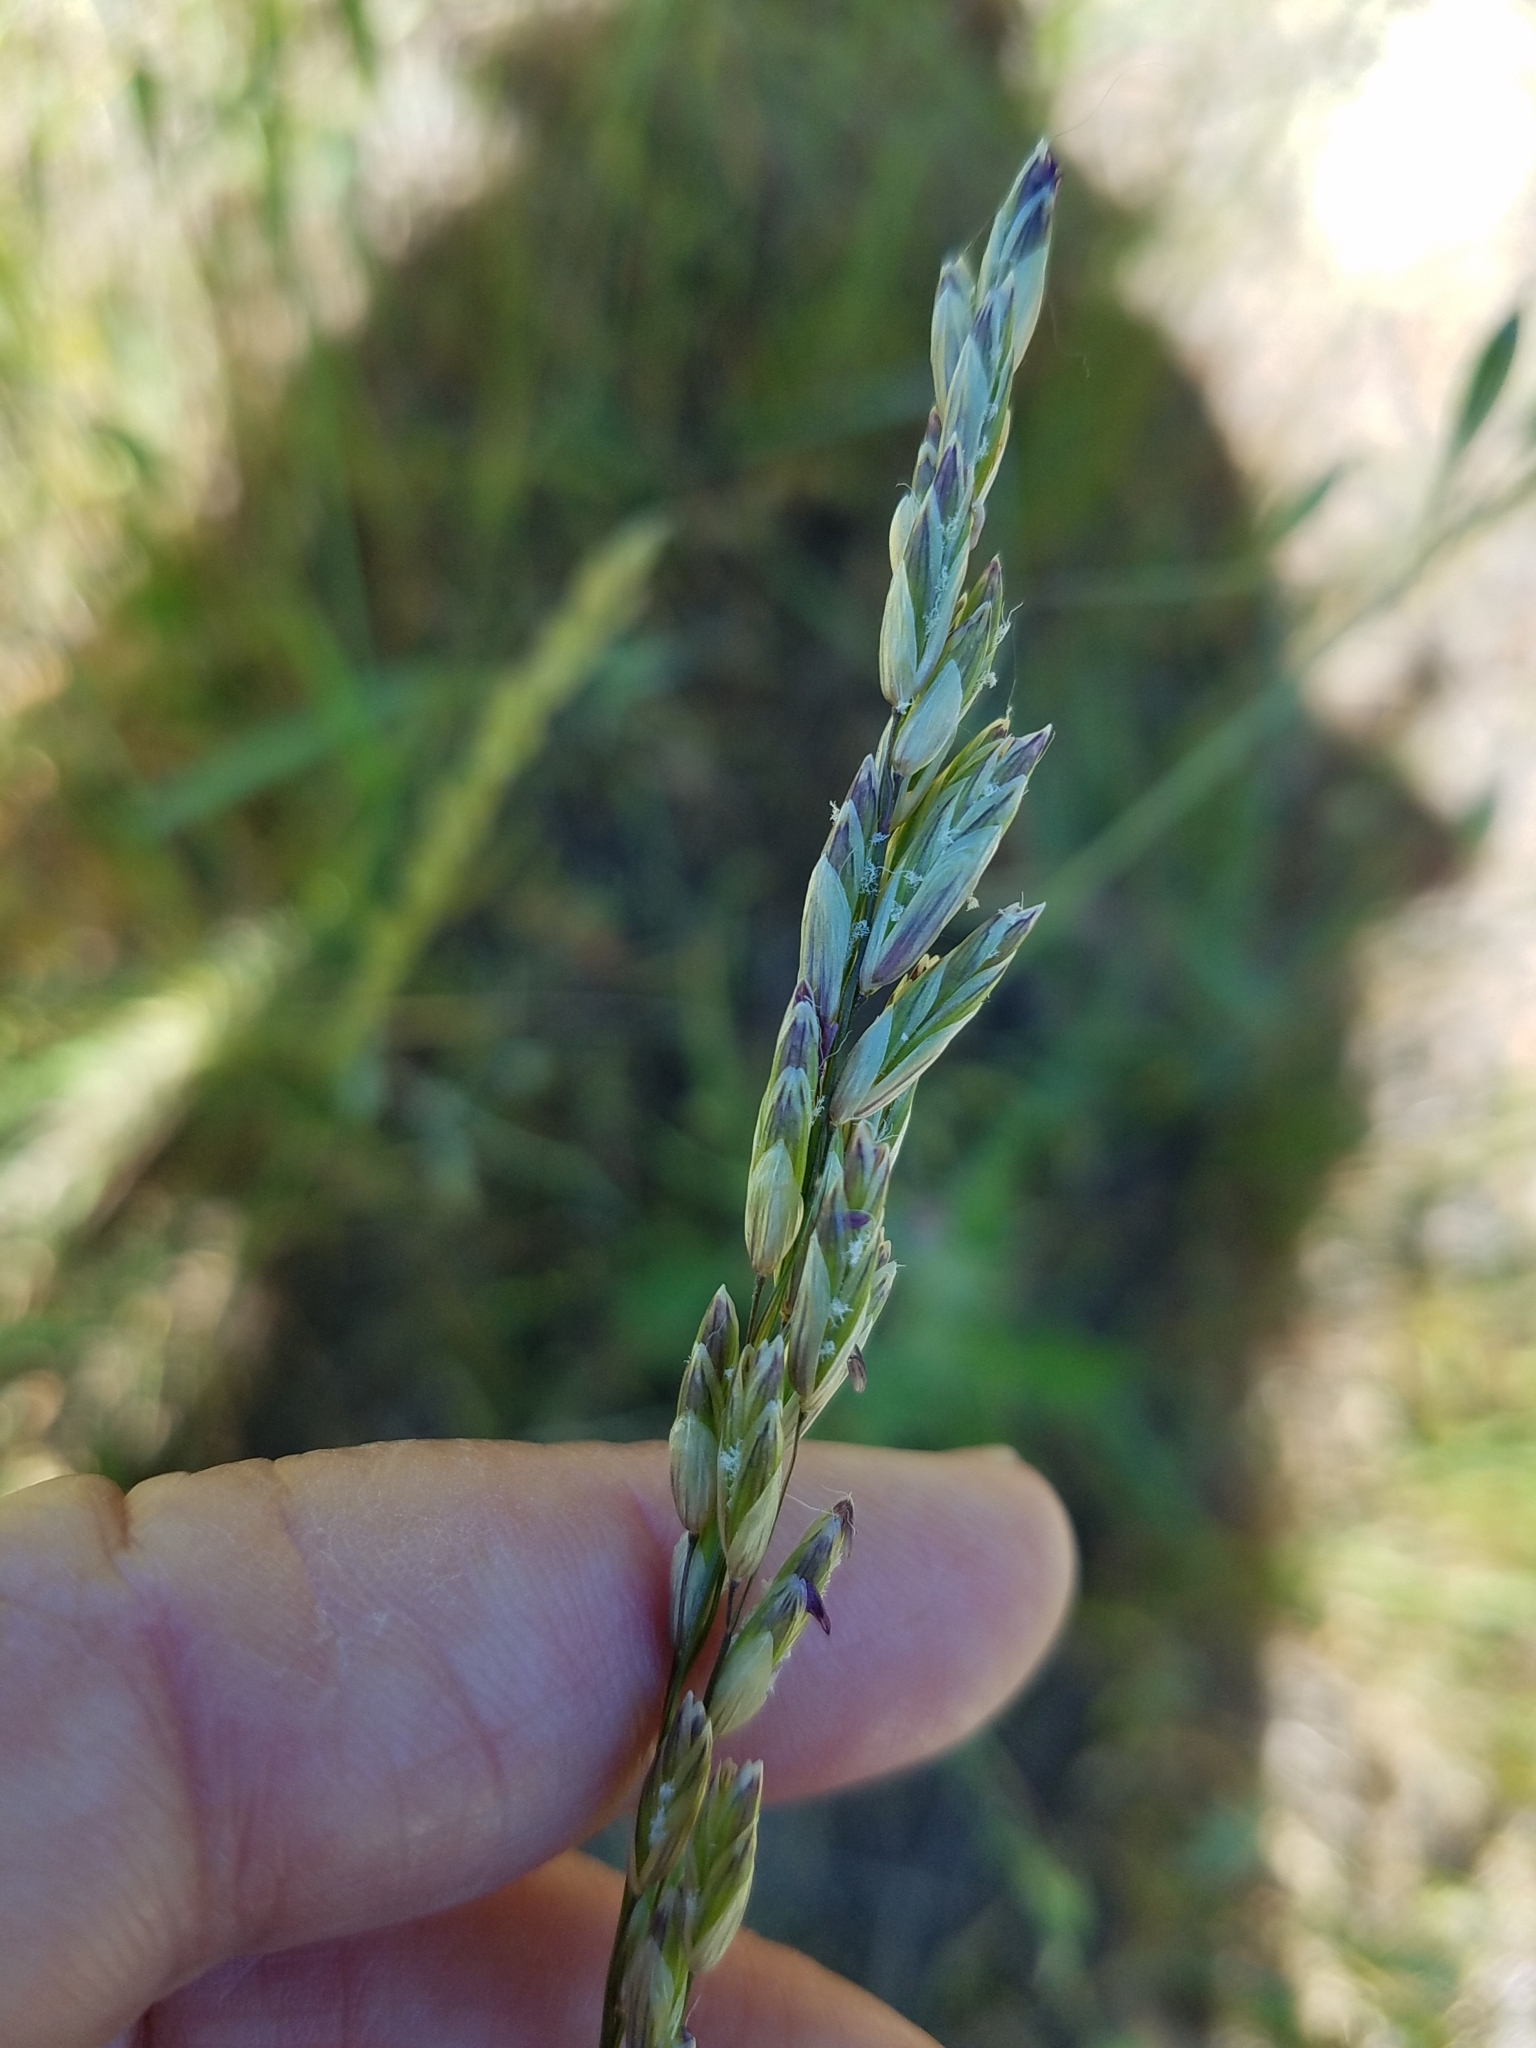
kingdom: Plantae
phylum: Tracheophyta
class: Liliopsida
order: Poales
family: Poaceae
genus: Melica
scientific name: Melica californica
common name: California melic
